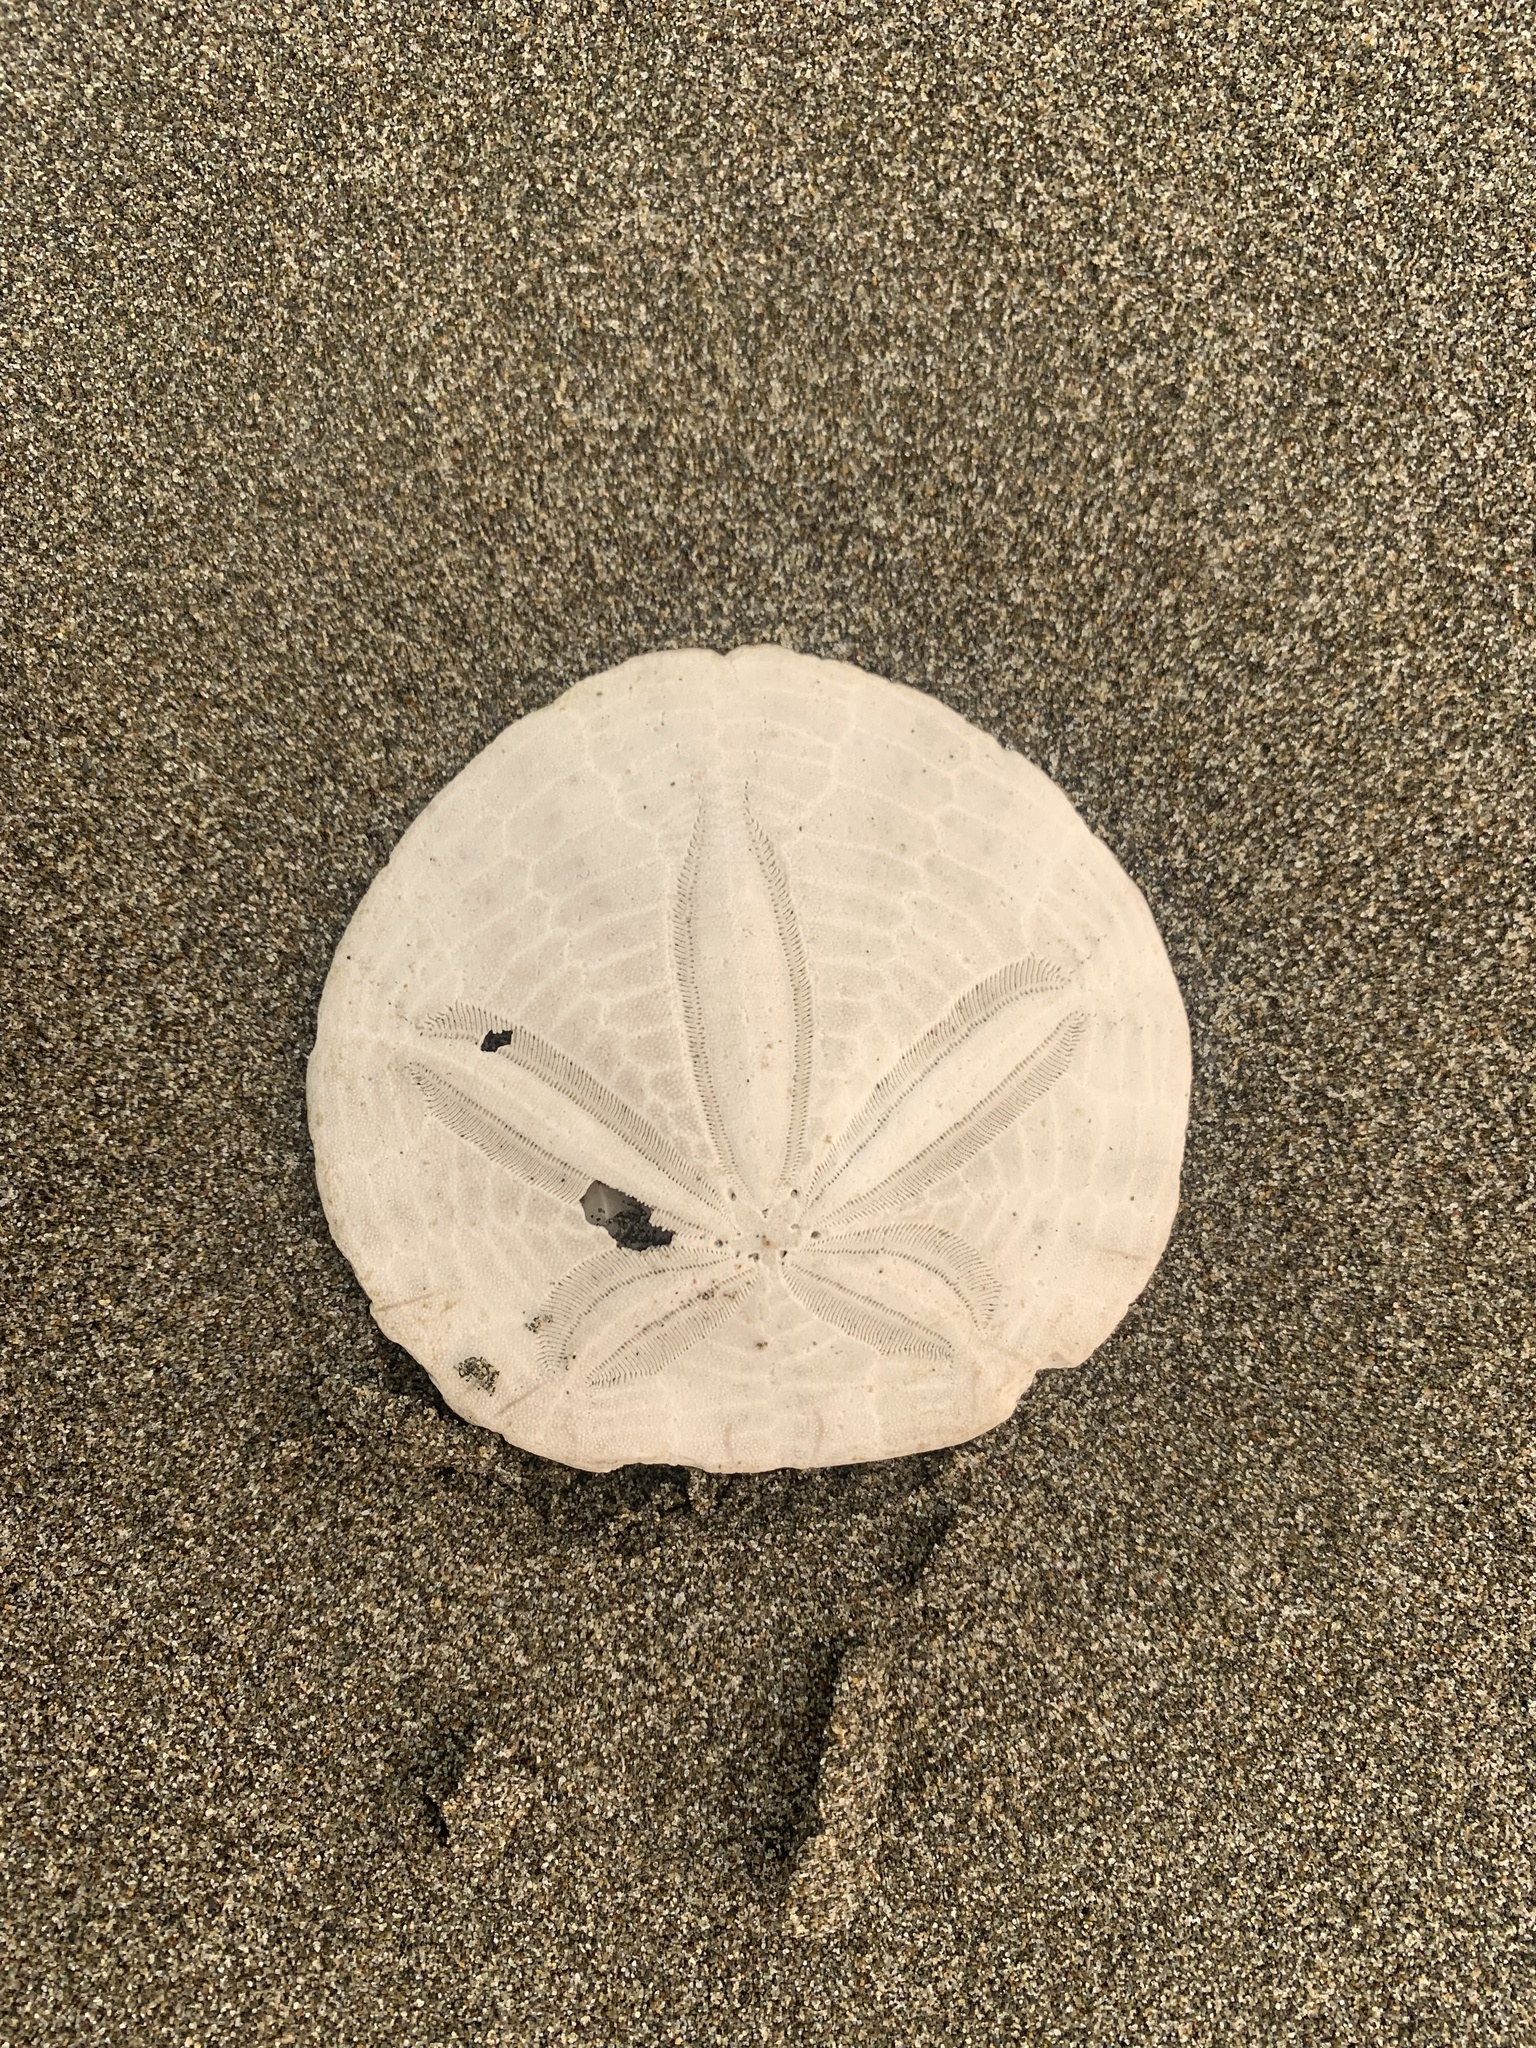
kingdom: Animalia
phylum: Echinodermata
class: Echinoidea
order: Echinolampadacea
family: Dendrasteridae
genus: Dendraster
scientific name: Dendraster excentricus
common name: Eccentric sand dollar sea urchin
